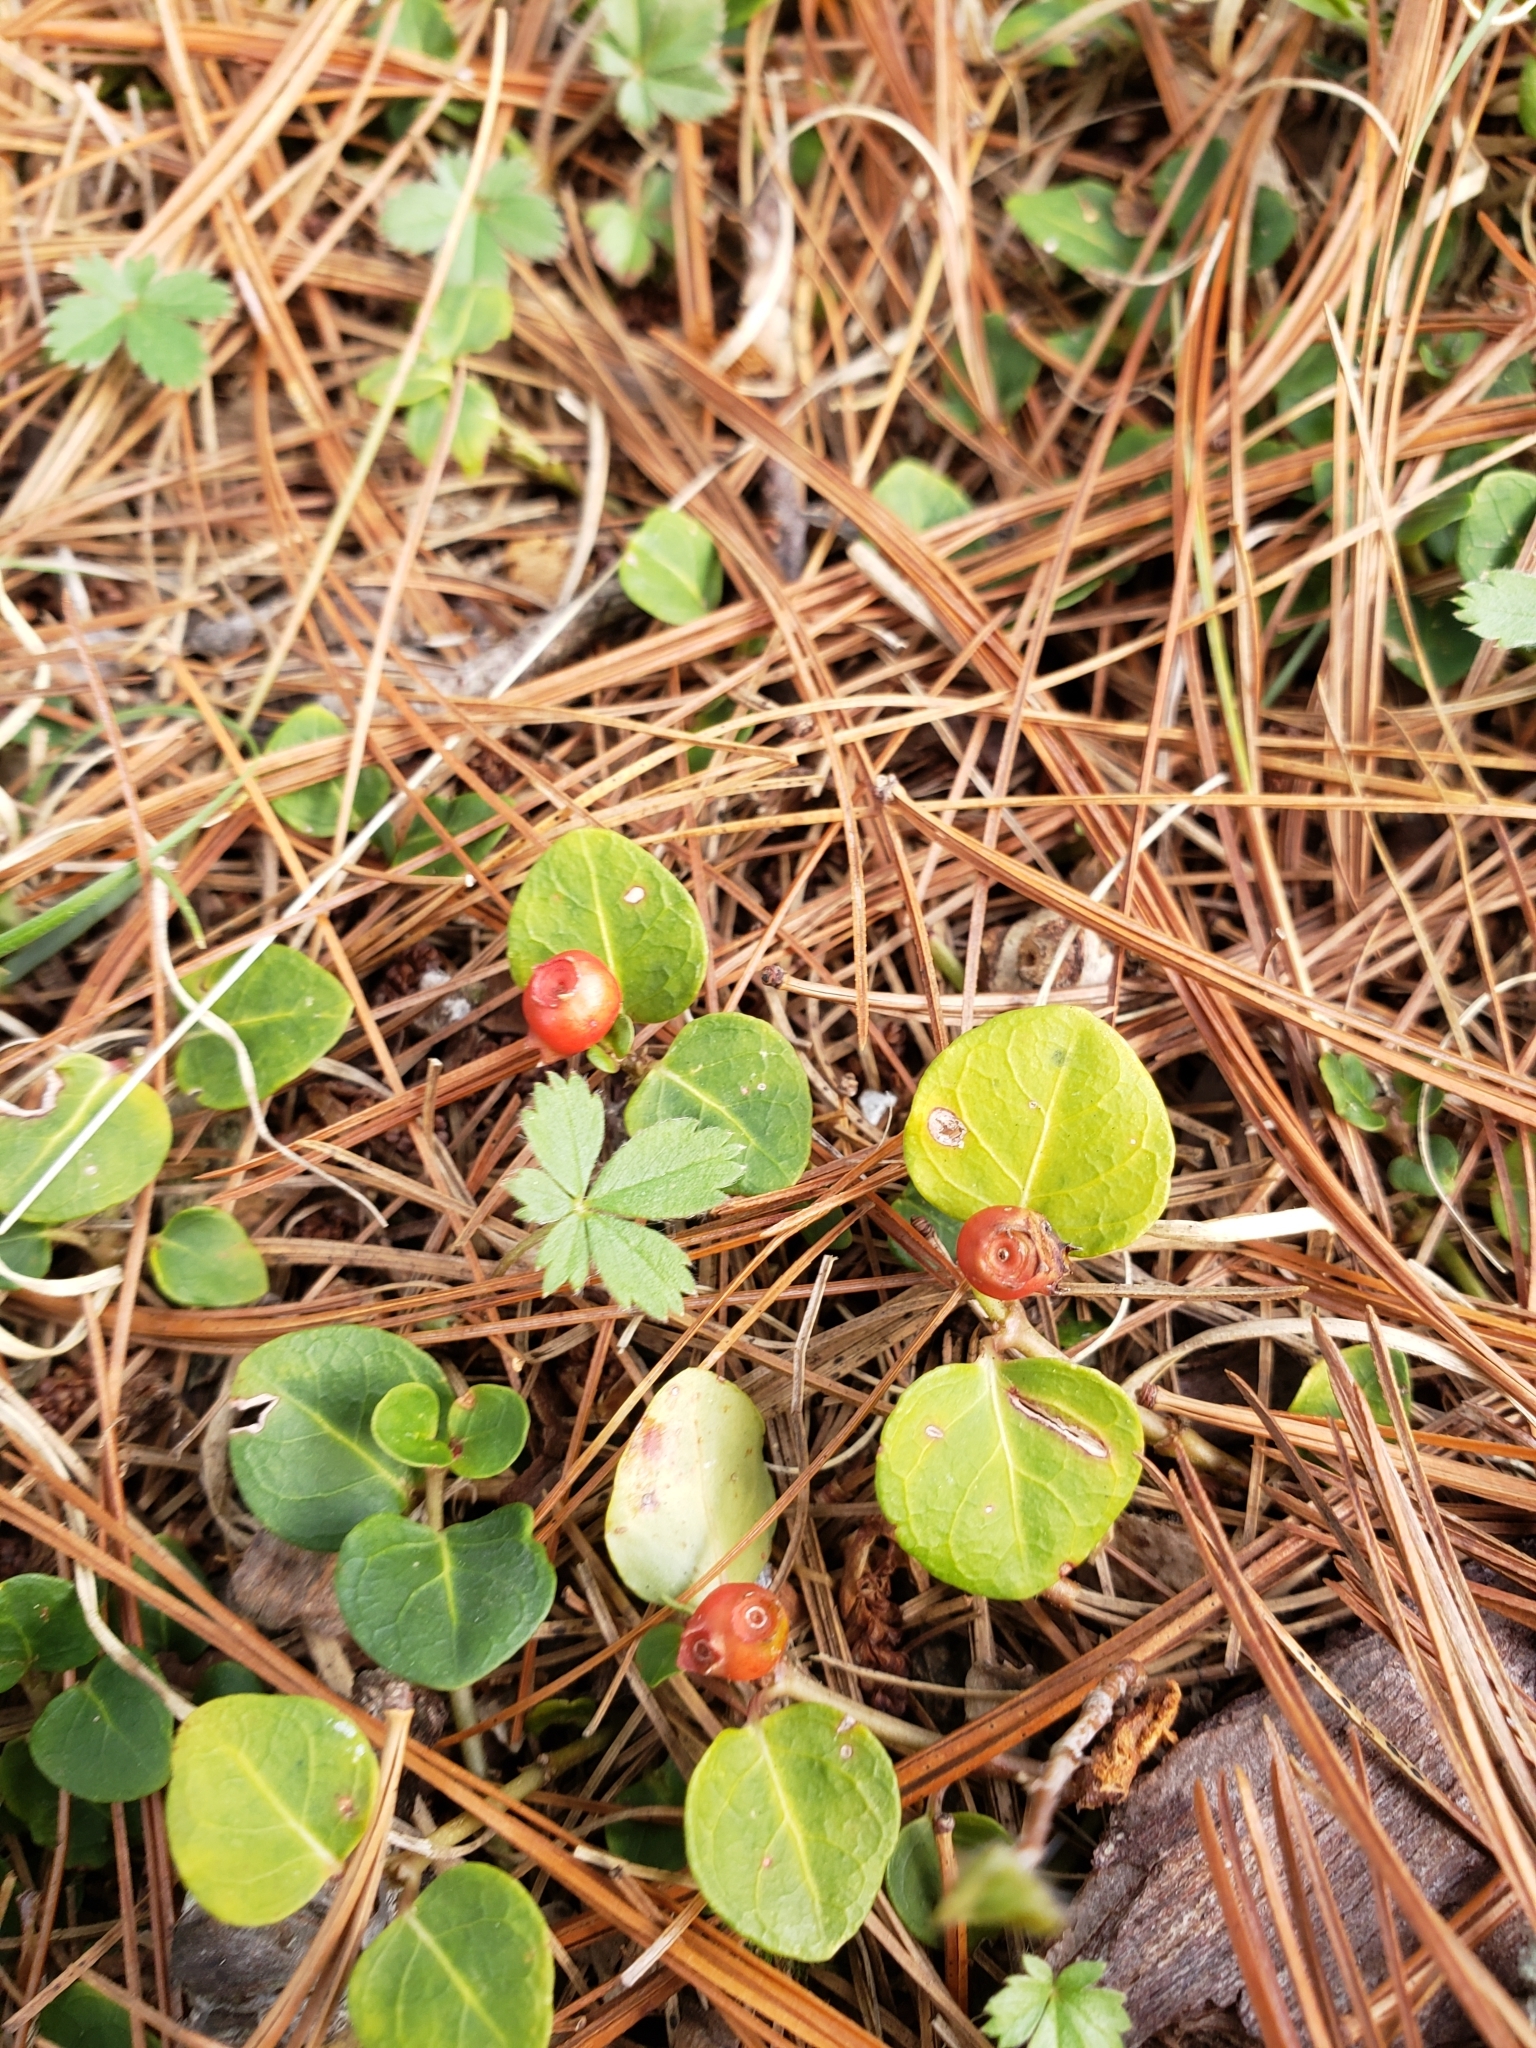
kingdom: Plantae
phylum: Tracheophyta
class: Magnoliopsida
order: Gentianales
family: Rubiaceae
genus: Mitchella
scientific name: Mitchella repens
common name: Partridge-berry
